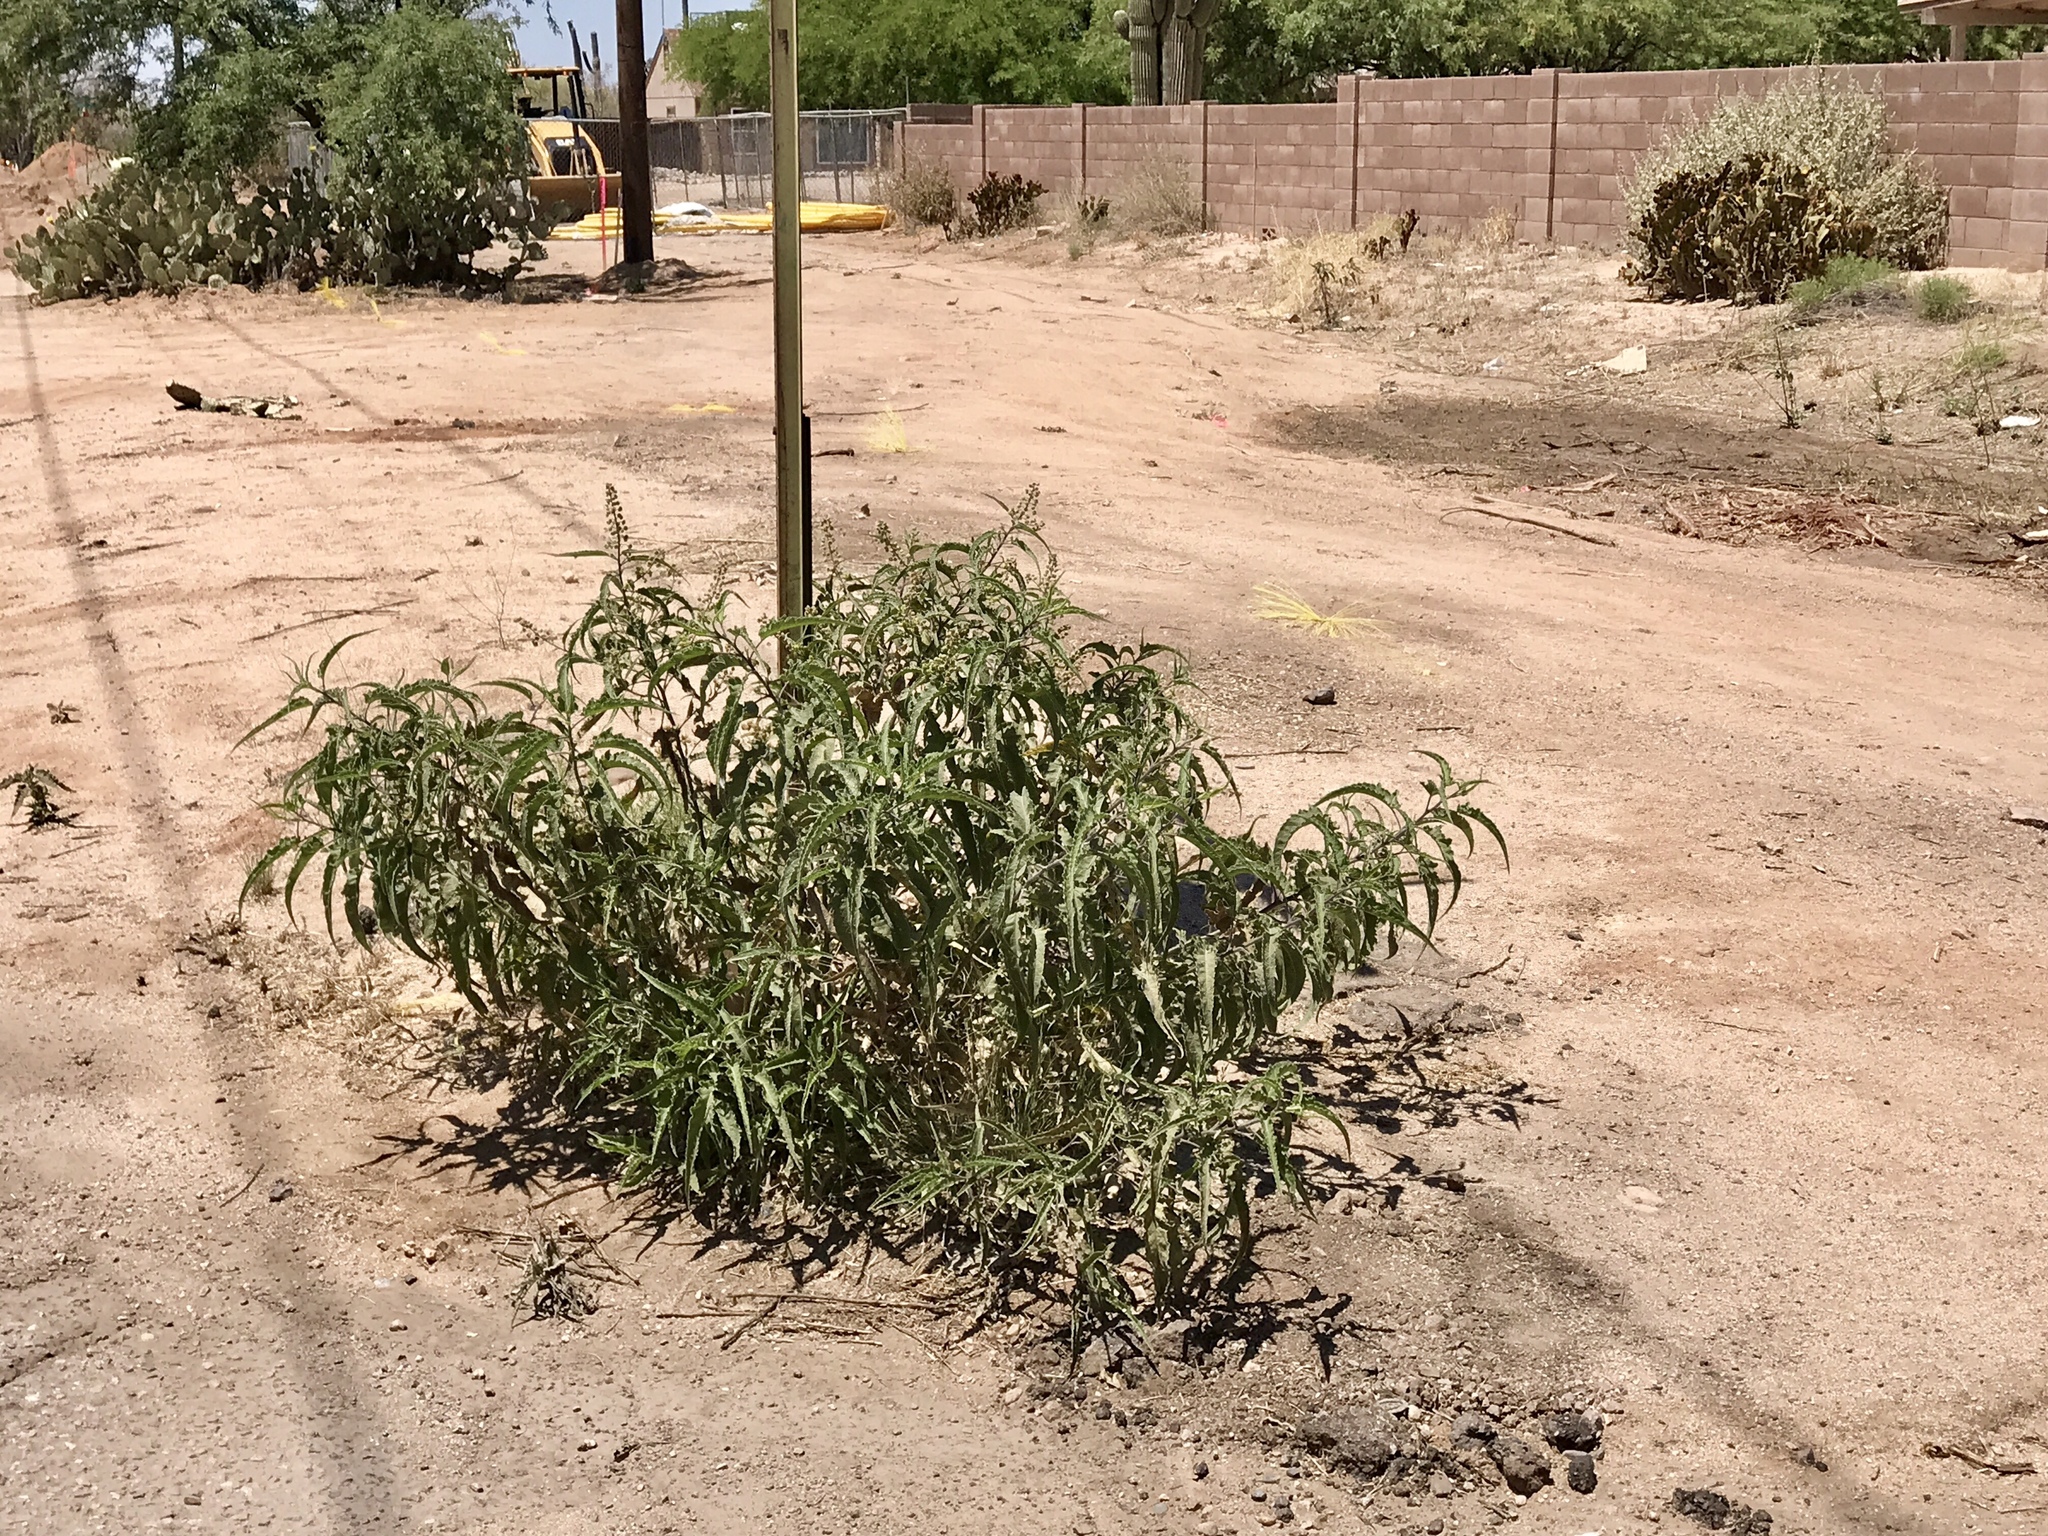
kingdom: Plantae
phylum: Tracheophyta
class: Magnoliopsida
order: Asterales
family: Asteraceae
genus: Ambrosia
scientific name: Ambrosia ambrosioides
